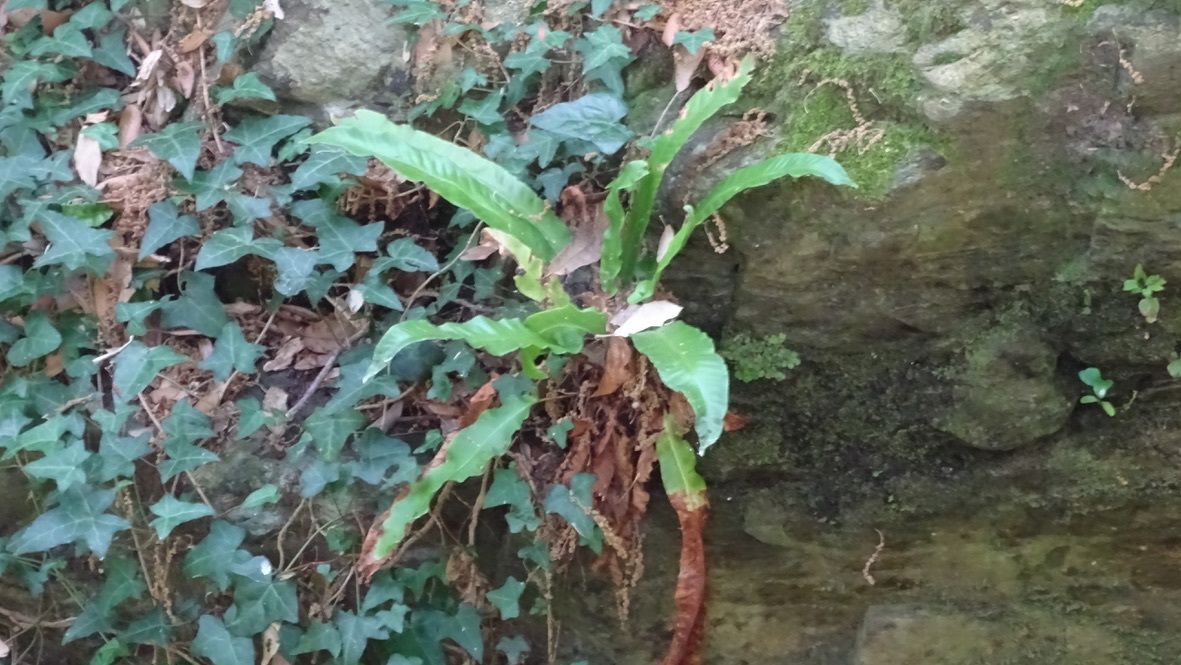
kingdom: Plantae
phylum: Tracheophyta
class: Polypodiopsida
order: Polypodiales
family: Aspleniaceae
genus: Asplenium
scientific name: Asplenium scolopendrium
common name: Hart's-tongue fern
